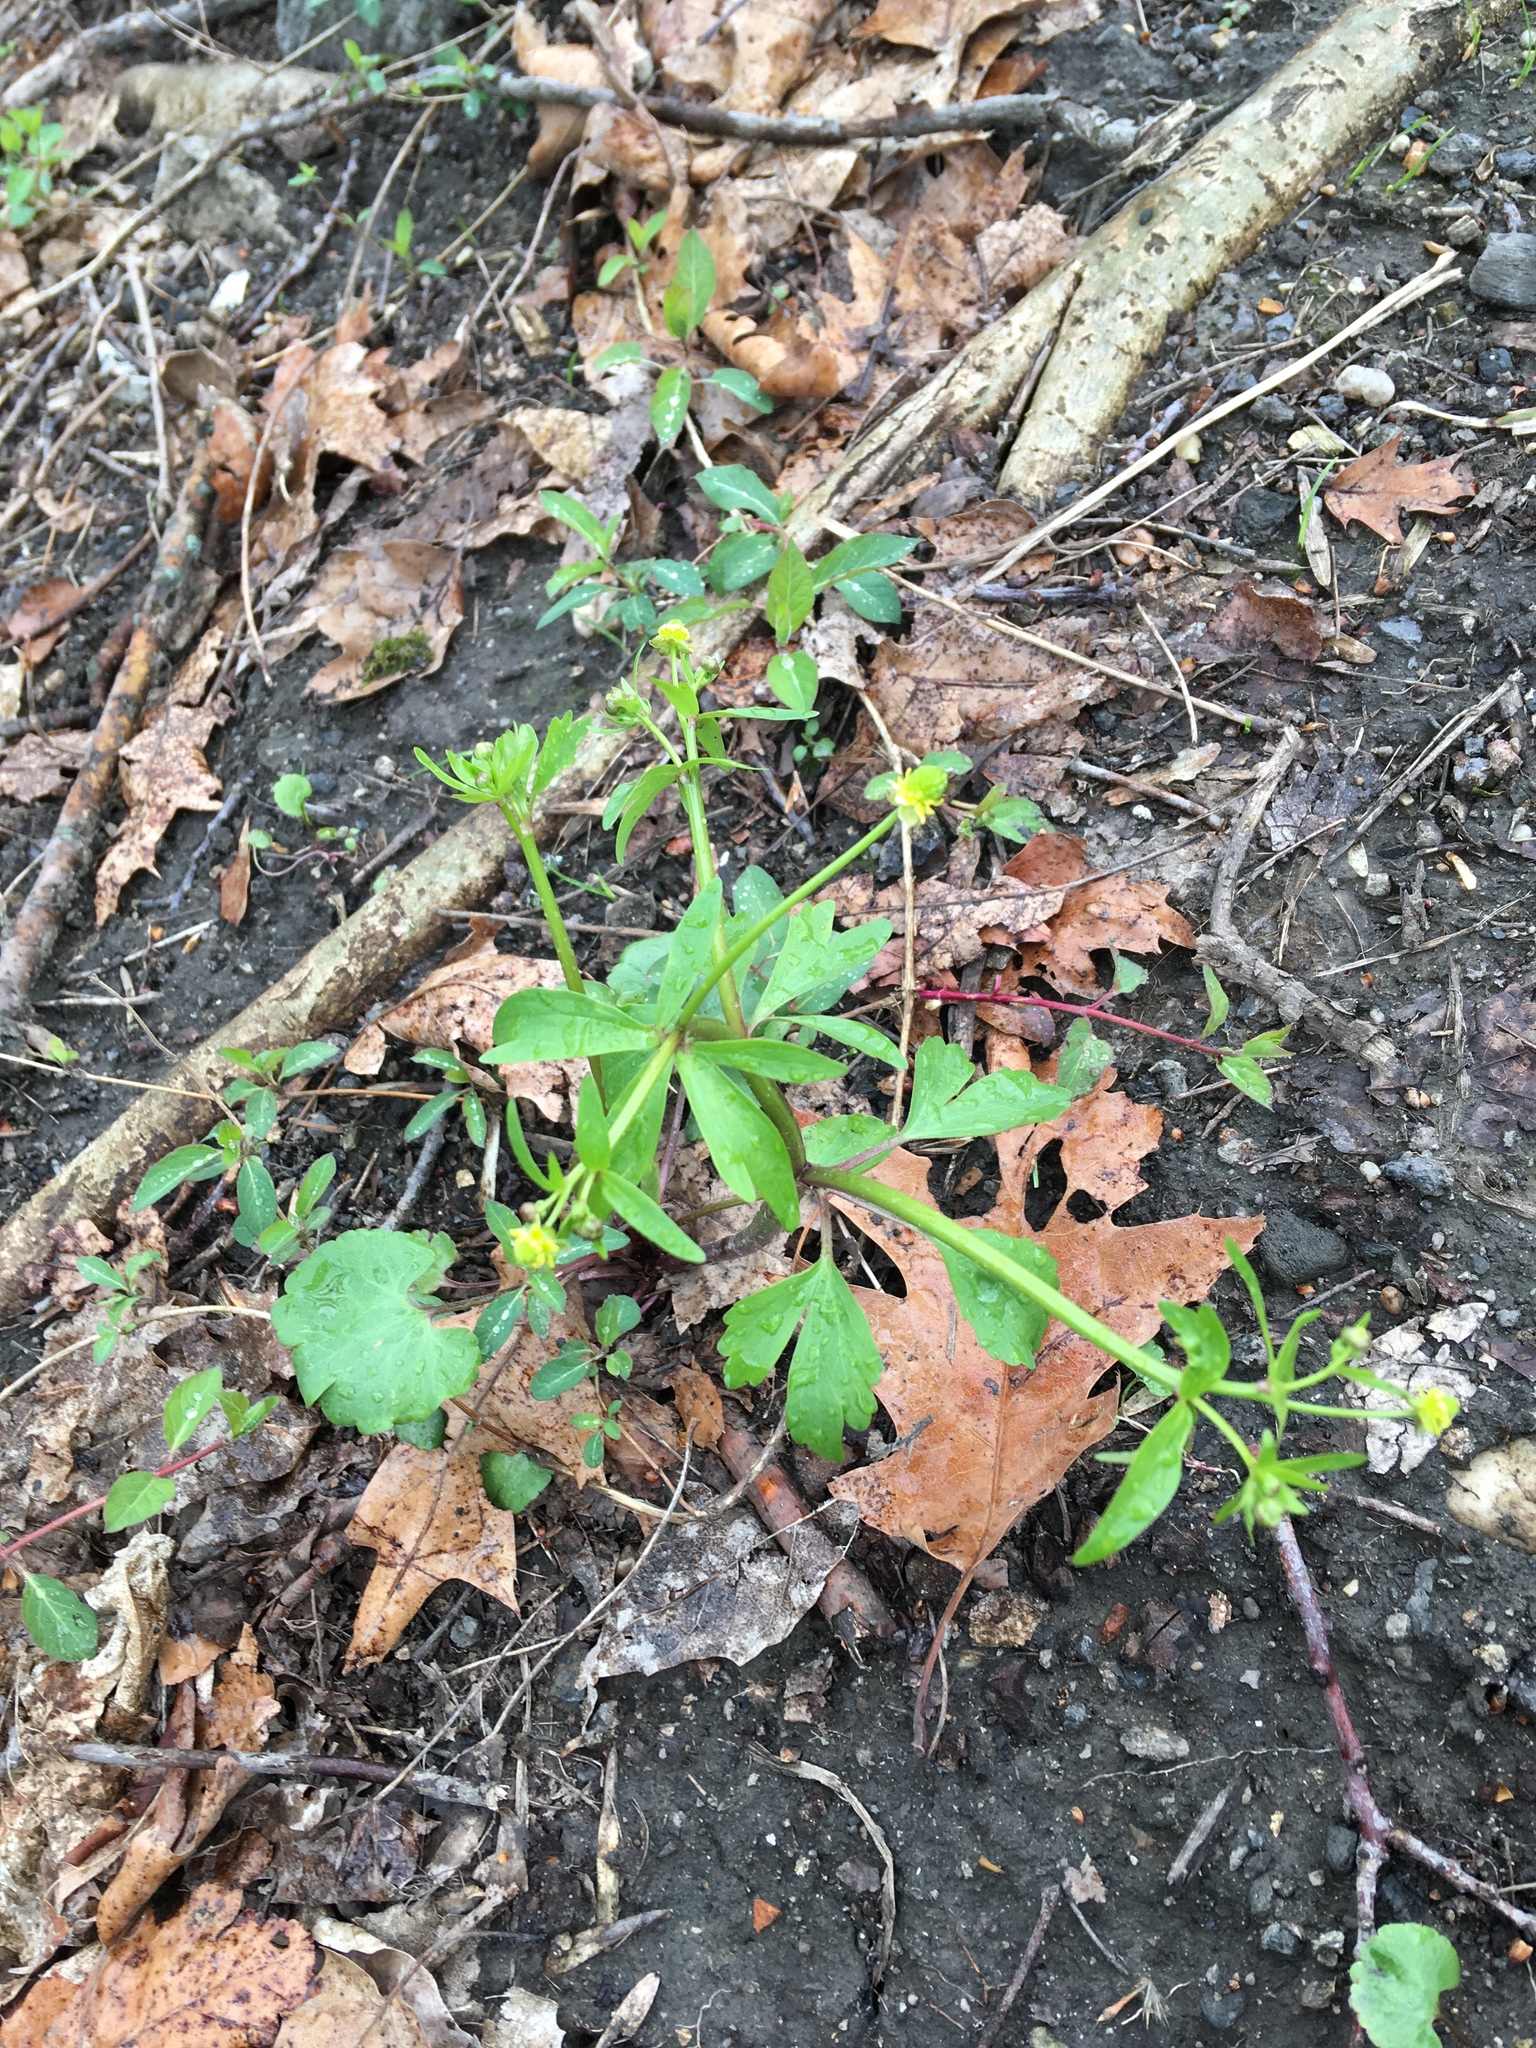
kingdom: Plantae
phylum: Tracheophyta
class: Magnoliopsida
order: Ranunculales
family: Ranunculaceae
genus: Ranunculus
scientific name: Ranunculus abortivus
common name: Early wood buttercup
